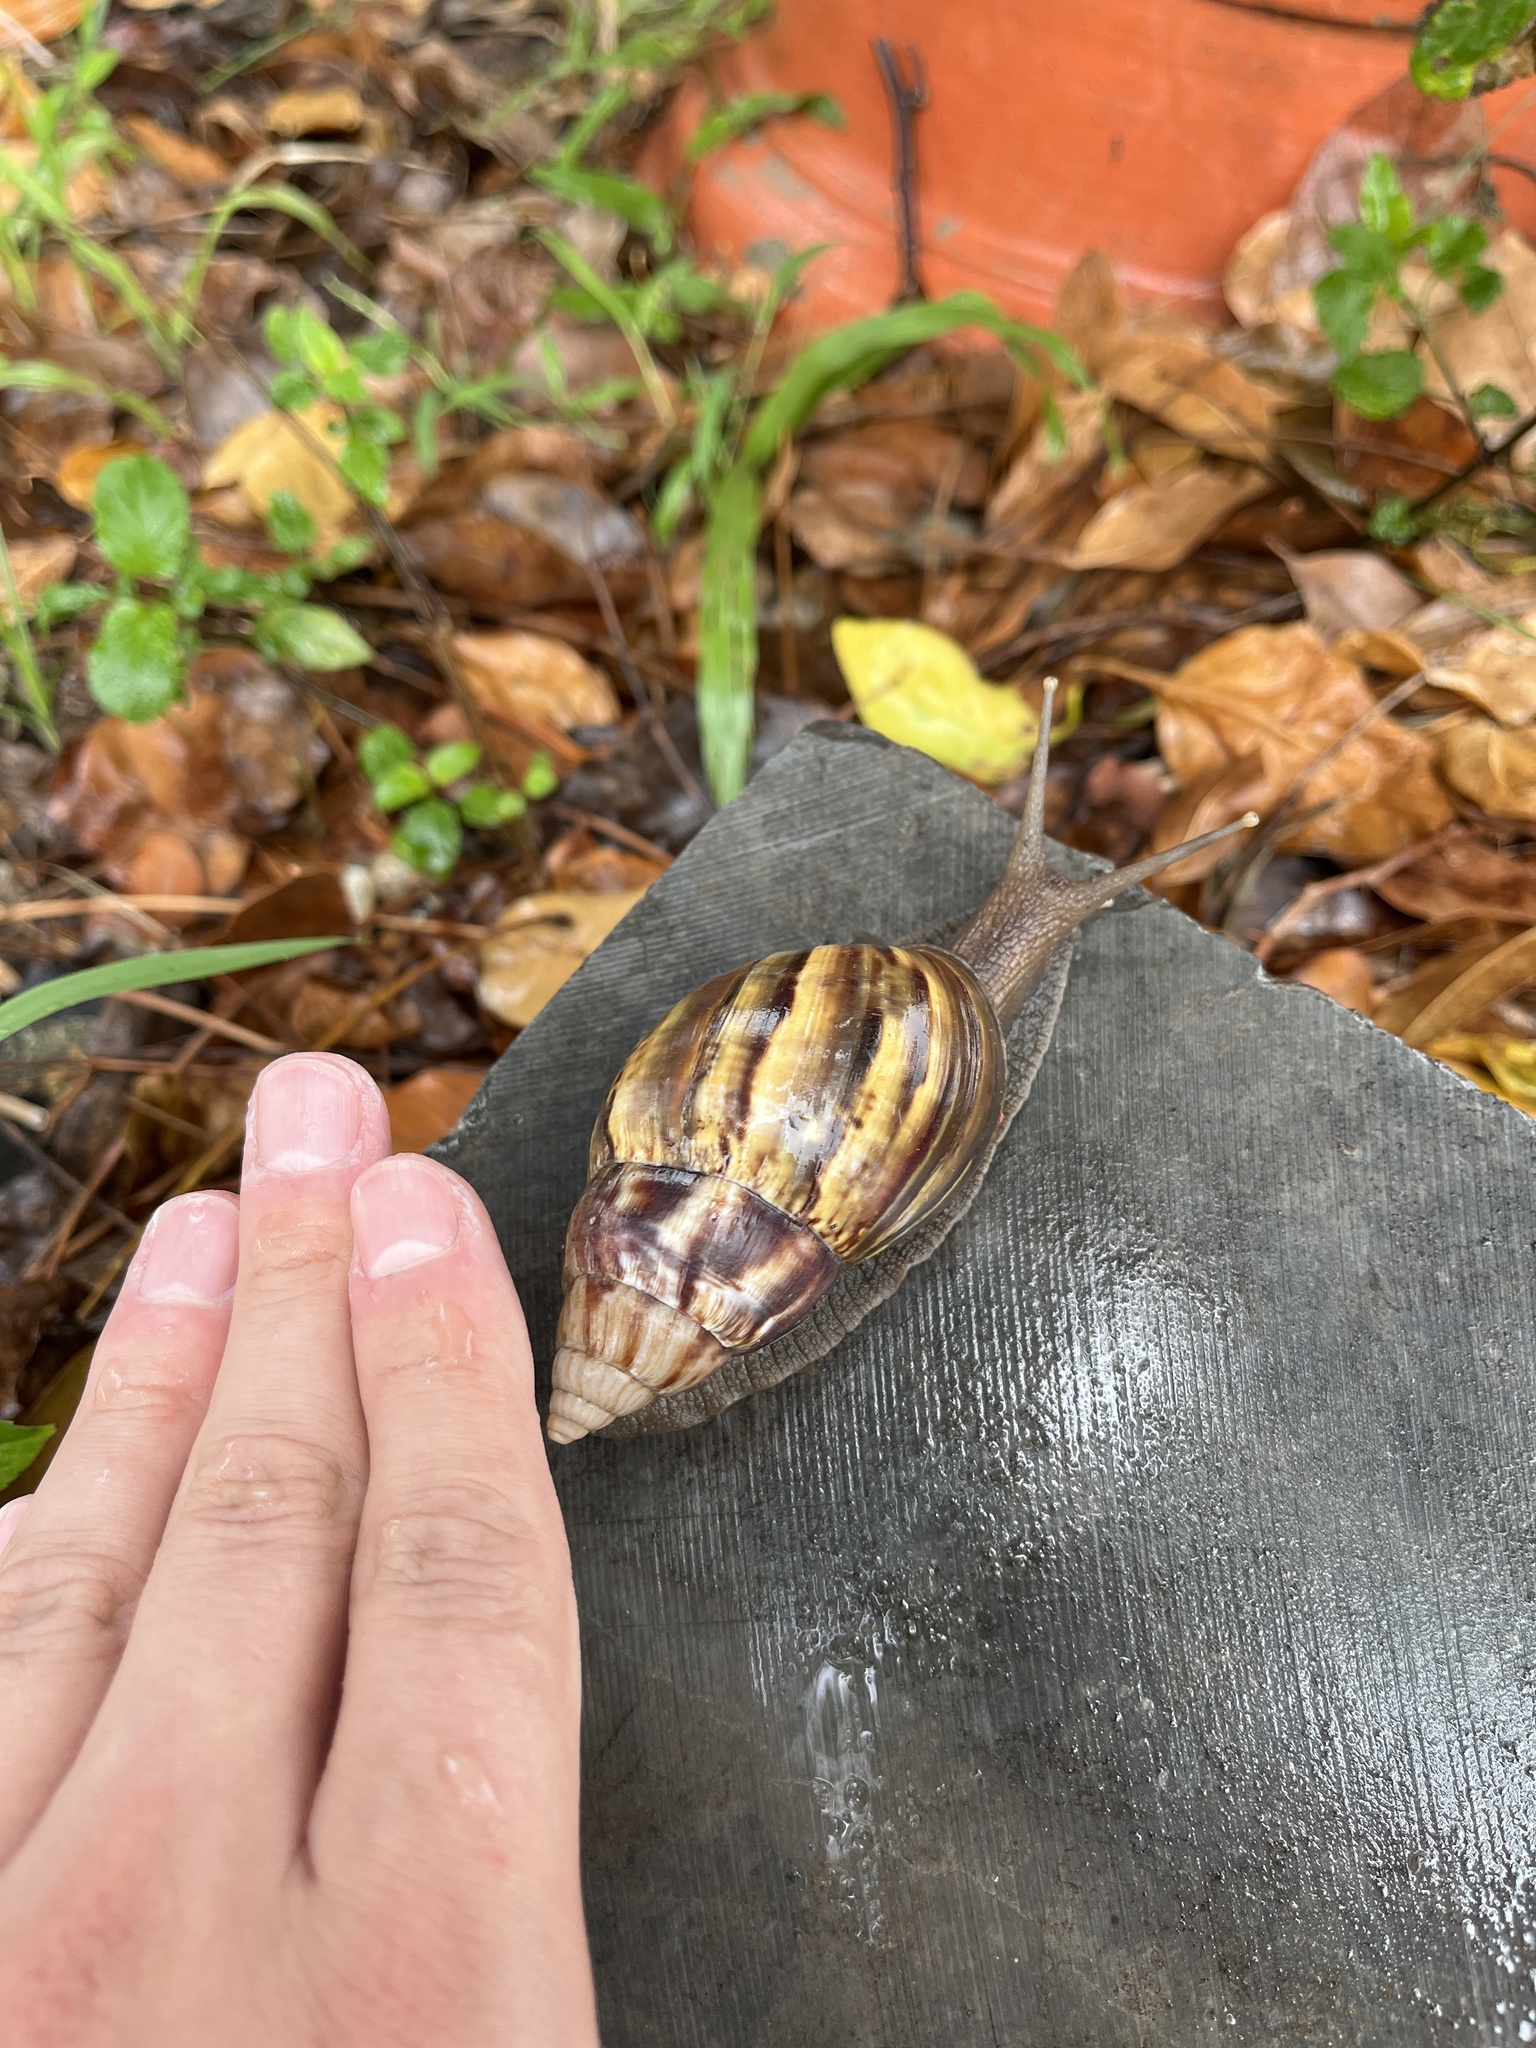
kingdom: Animalia
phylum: Mollusca
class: Gastropoda
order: Stylommatophora
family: Achatinidae
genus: Lissachatina
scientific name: Lissachatina fulica
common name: Giant african snail
